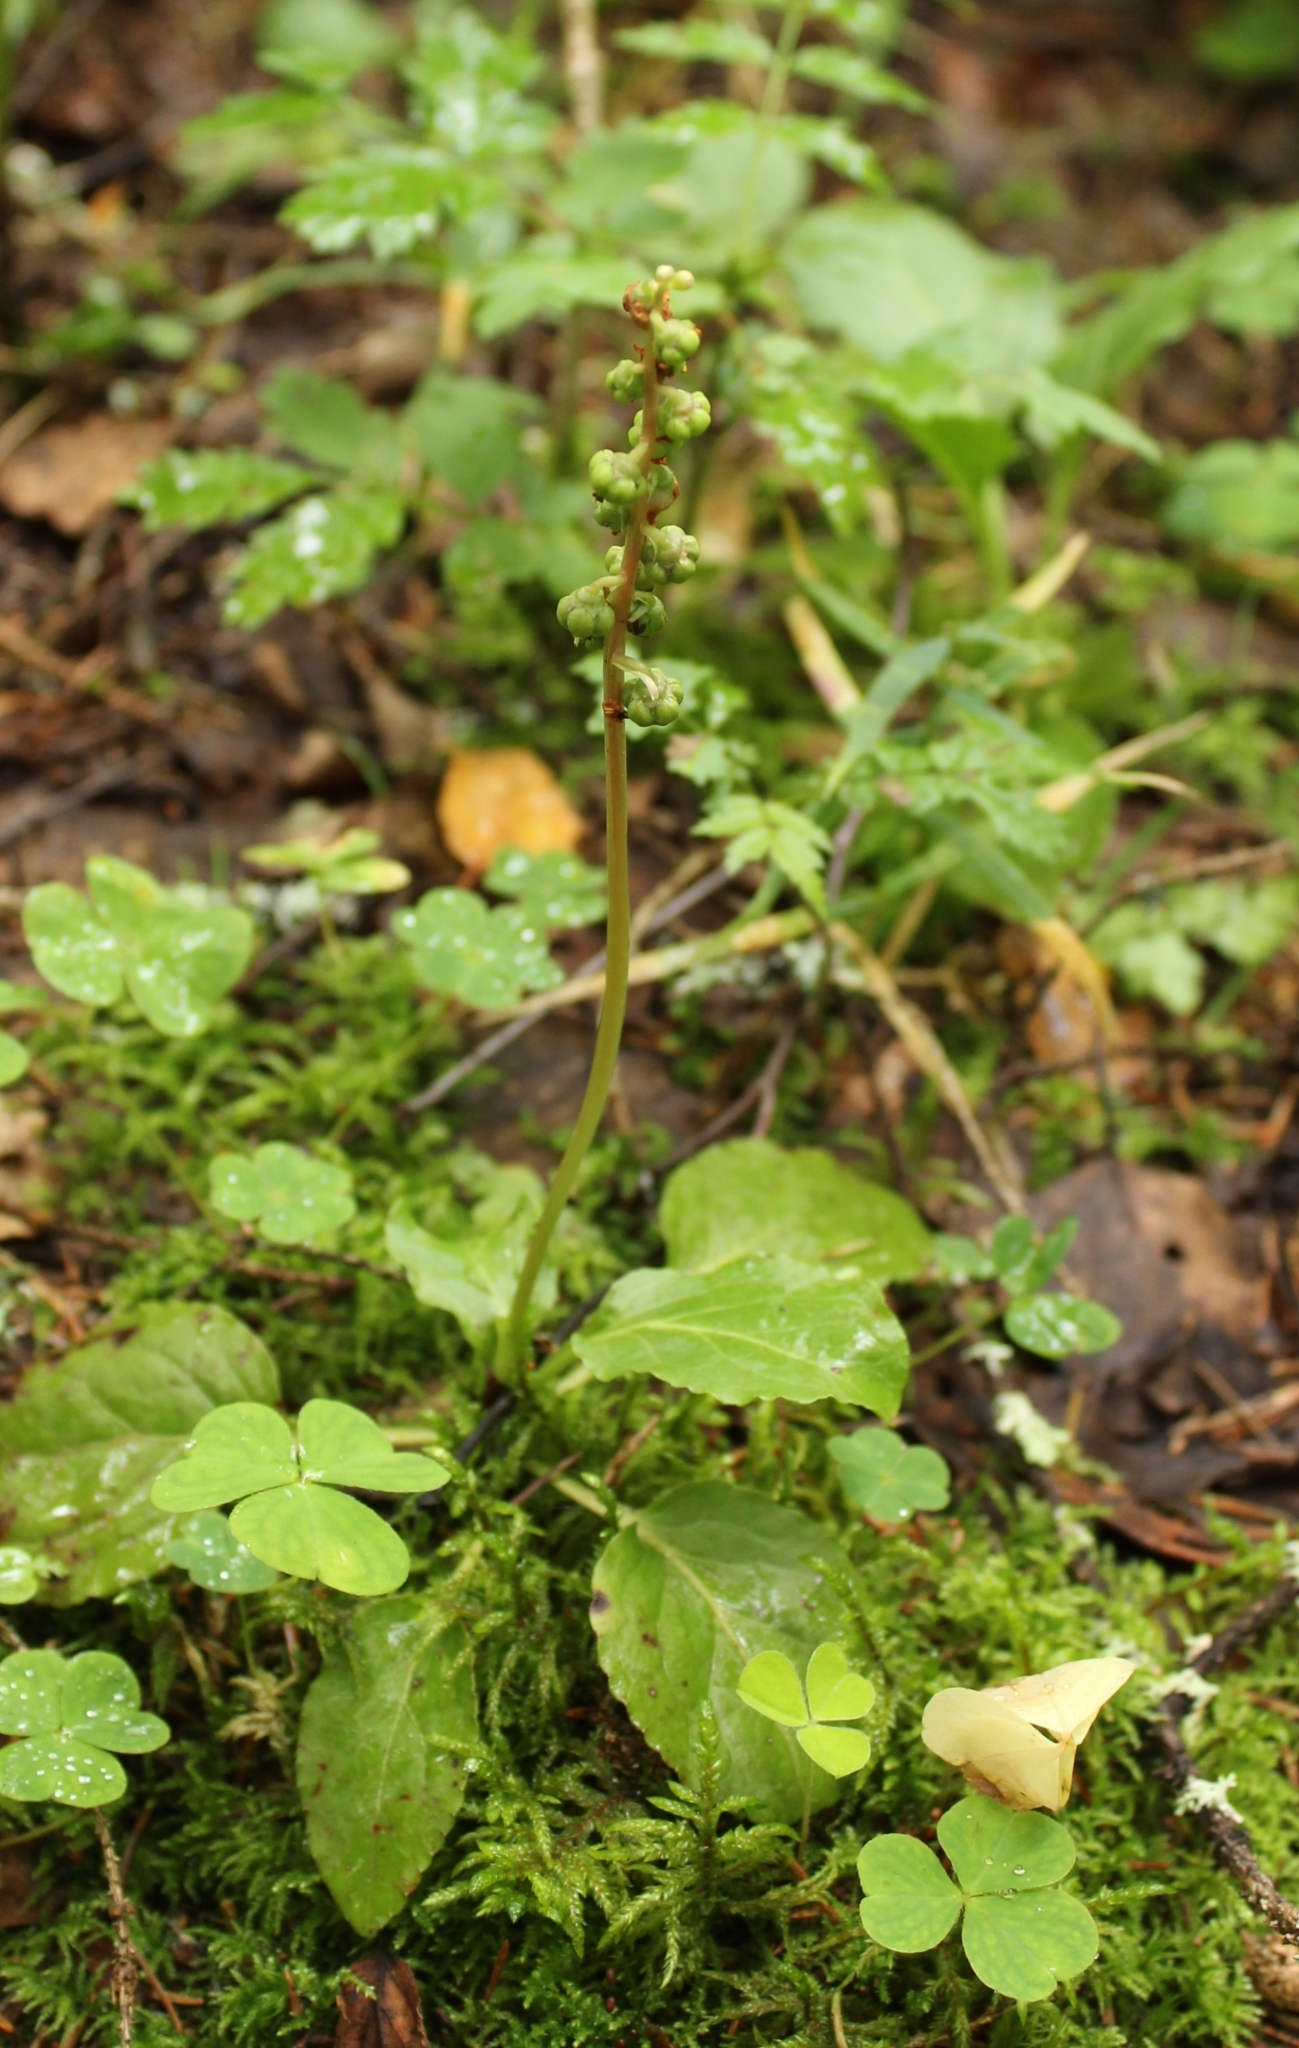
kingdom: Plantae
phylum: Tracheophyta
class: Magnoliopsida
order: Ericales
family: Ericaceae
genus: Pyrola
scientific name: Pyrola minor
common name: Common wintergreen
